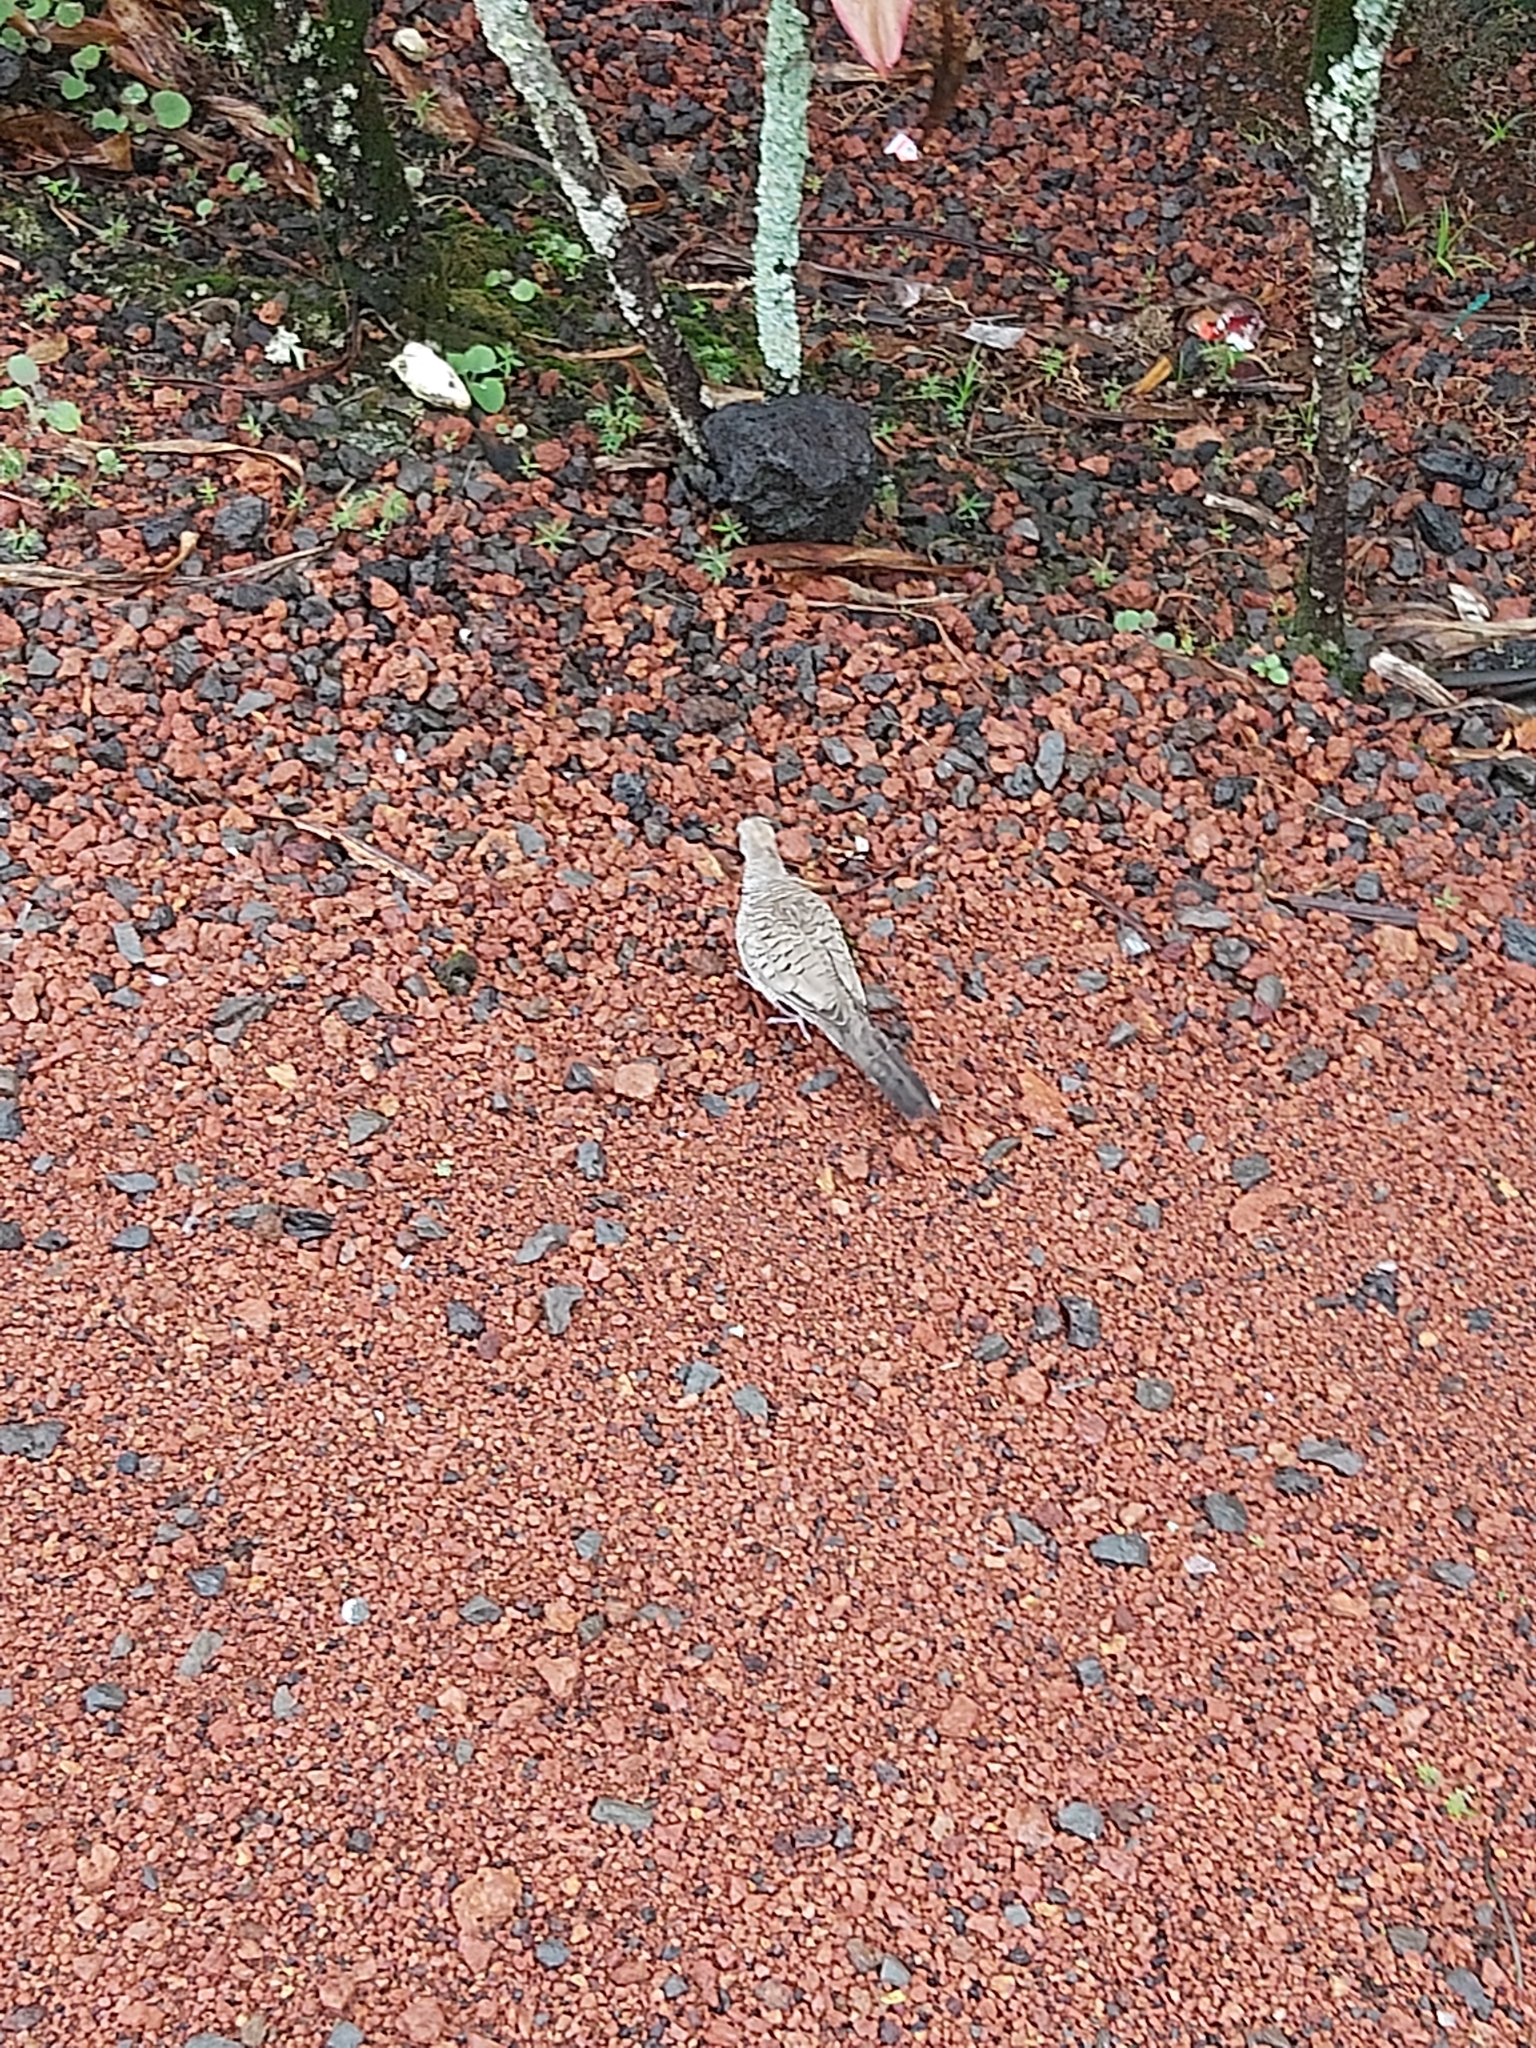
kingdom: Animalia
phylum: Chordata
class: Aves
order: Columbiformes
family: Columbidae
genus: Geopelia
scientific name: Geopelia striata
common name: Zebra dove
